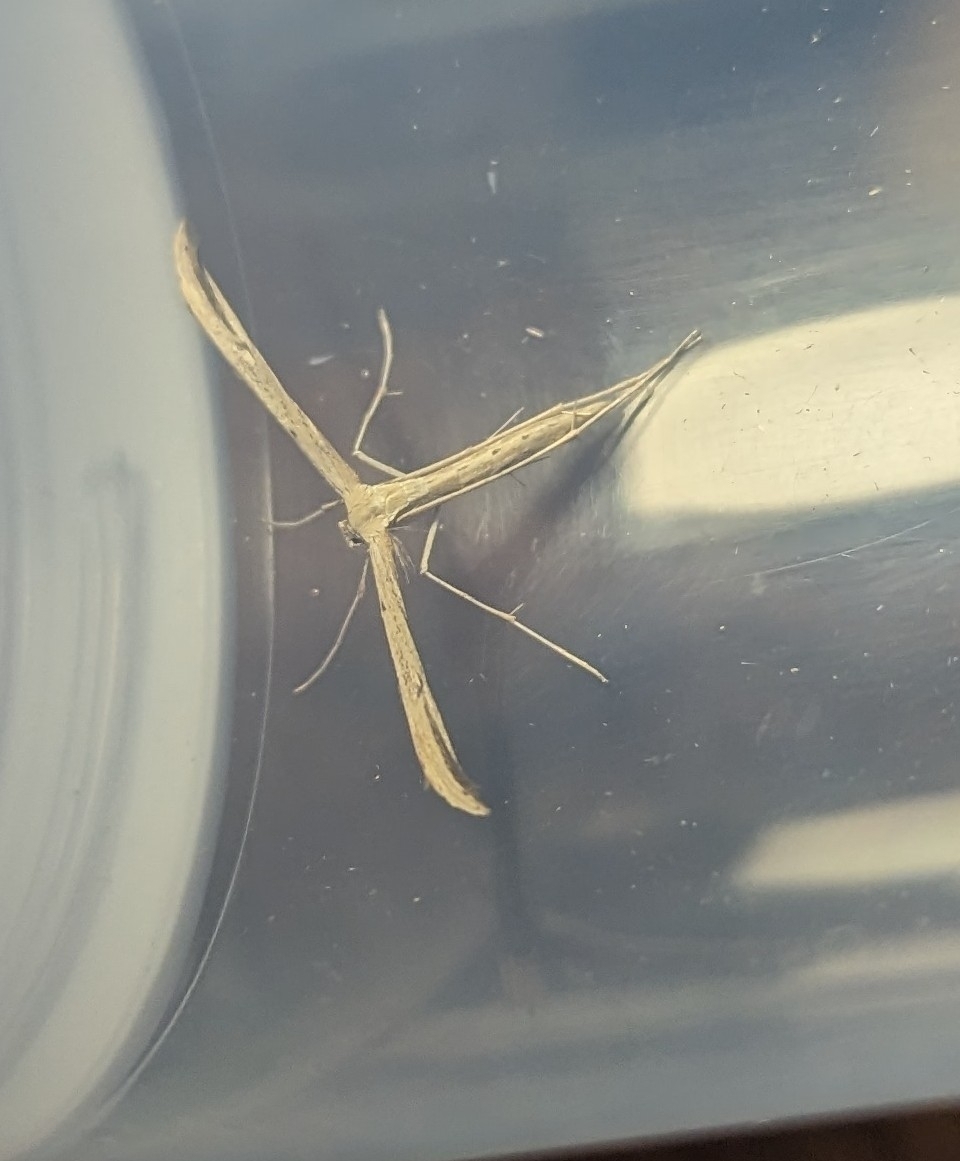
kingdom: Animalia
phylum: Arthropoda
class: Insecta
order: Lepidoptera
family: Pterophoridae
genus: Emmelina
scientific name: Emmelina monodactyla
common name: Common plume
